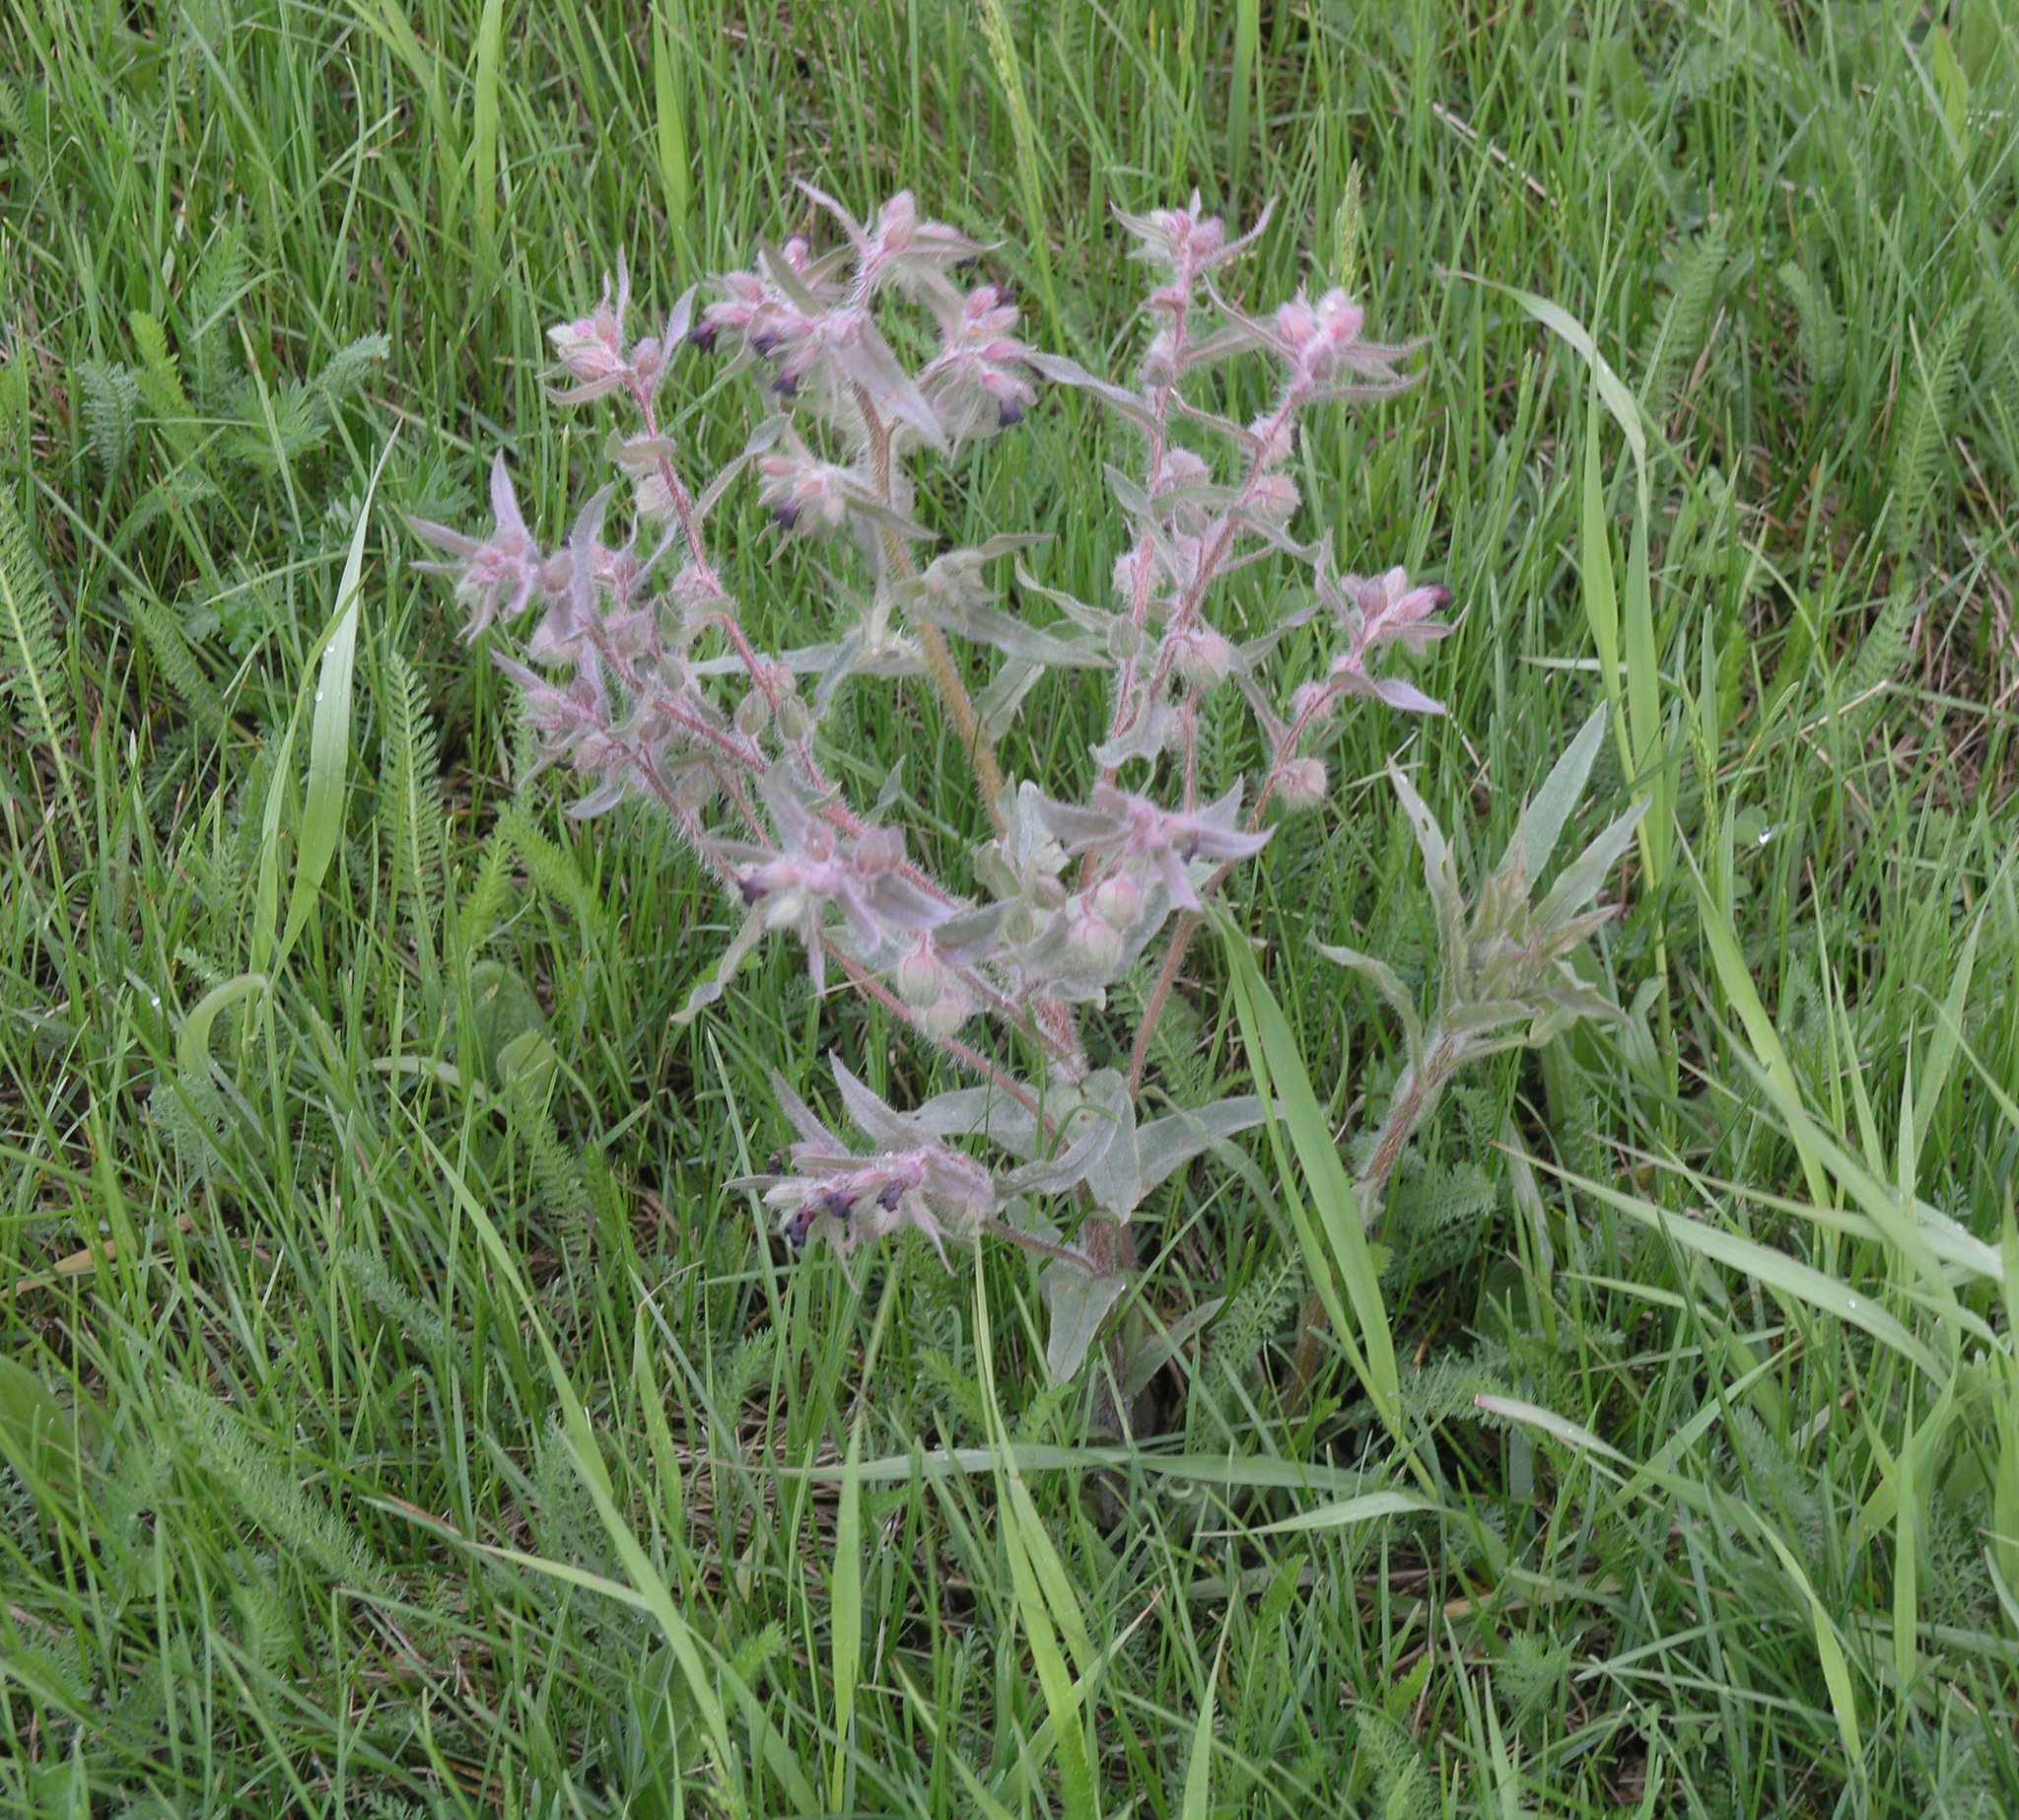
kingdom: Plantae
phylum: Tracheophyta
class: Magnoliopsida
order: Boraginales
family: Boraginaceae
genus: Nonea
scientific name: Nonea pulla
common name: Brown nonea
